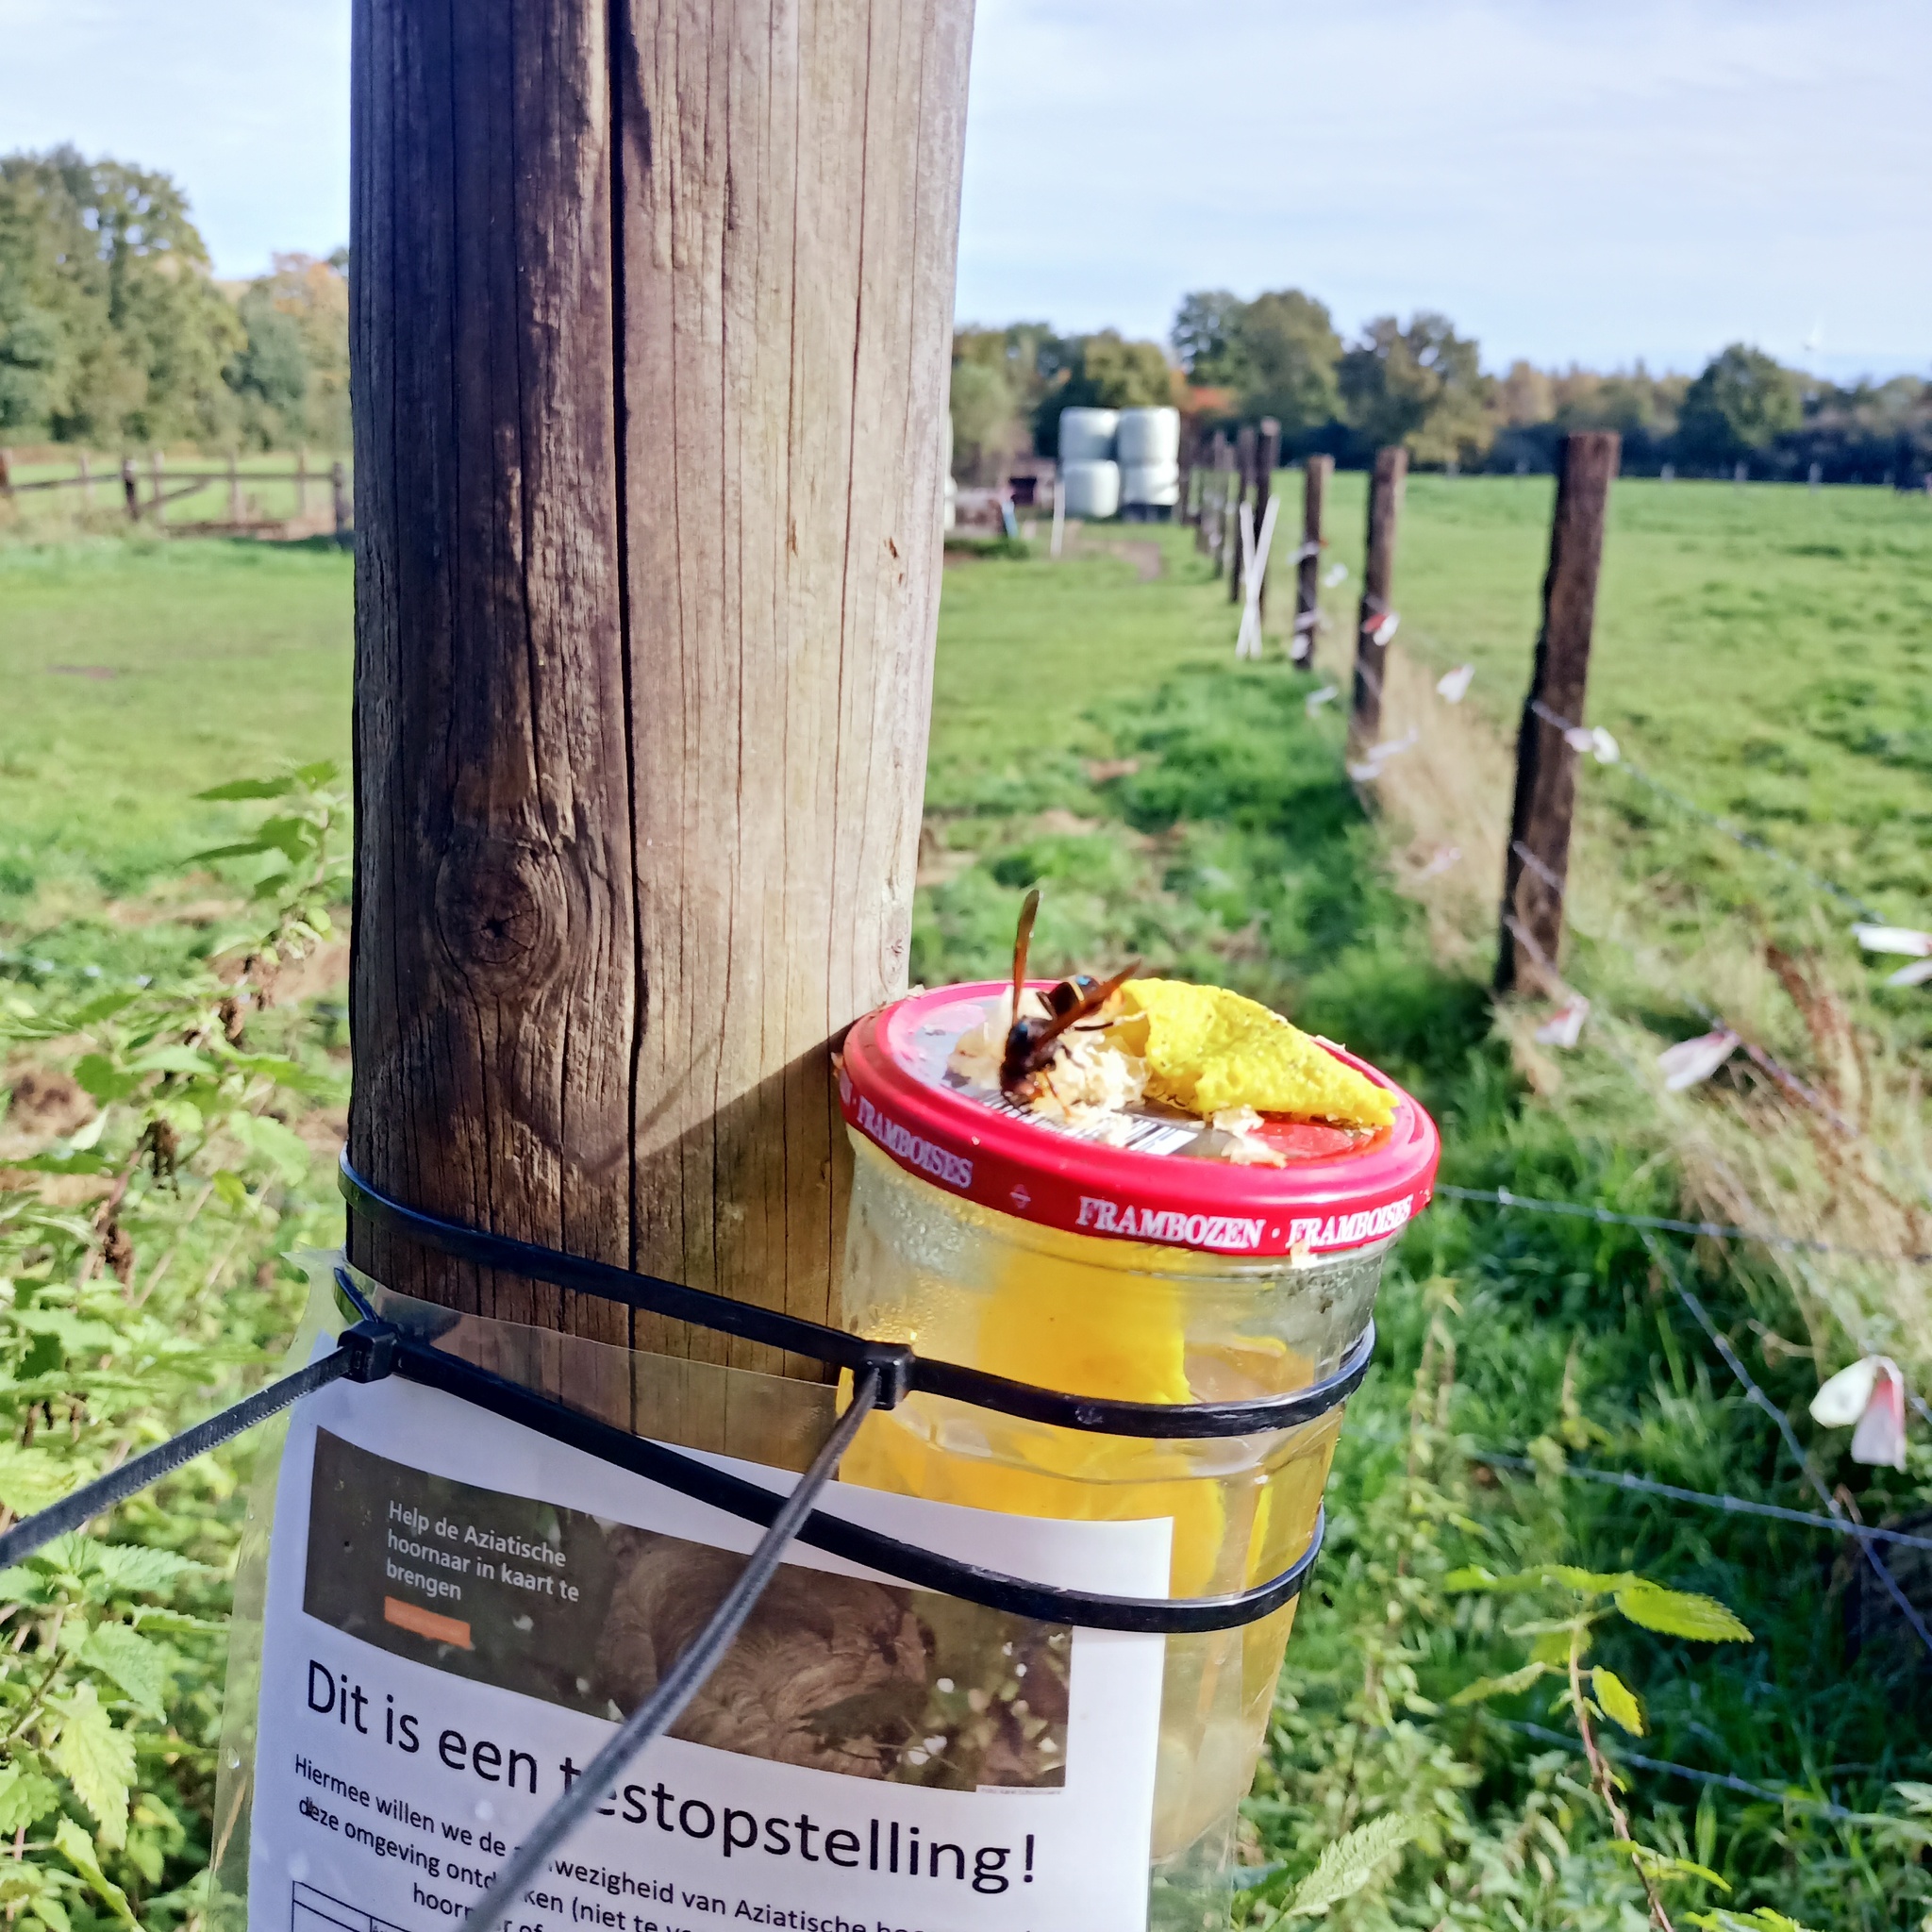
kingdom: Animalia
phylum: Arthropoda
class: Insecta
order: Hymenoptera
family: Vespidae
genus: Vespa
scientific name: Vespa velutina
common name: Asian hornet
